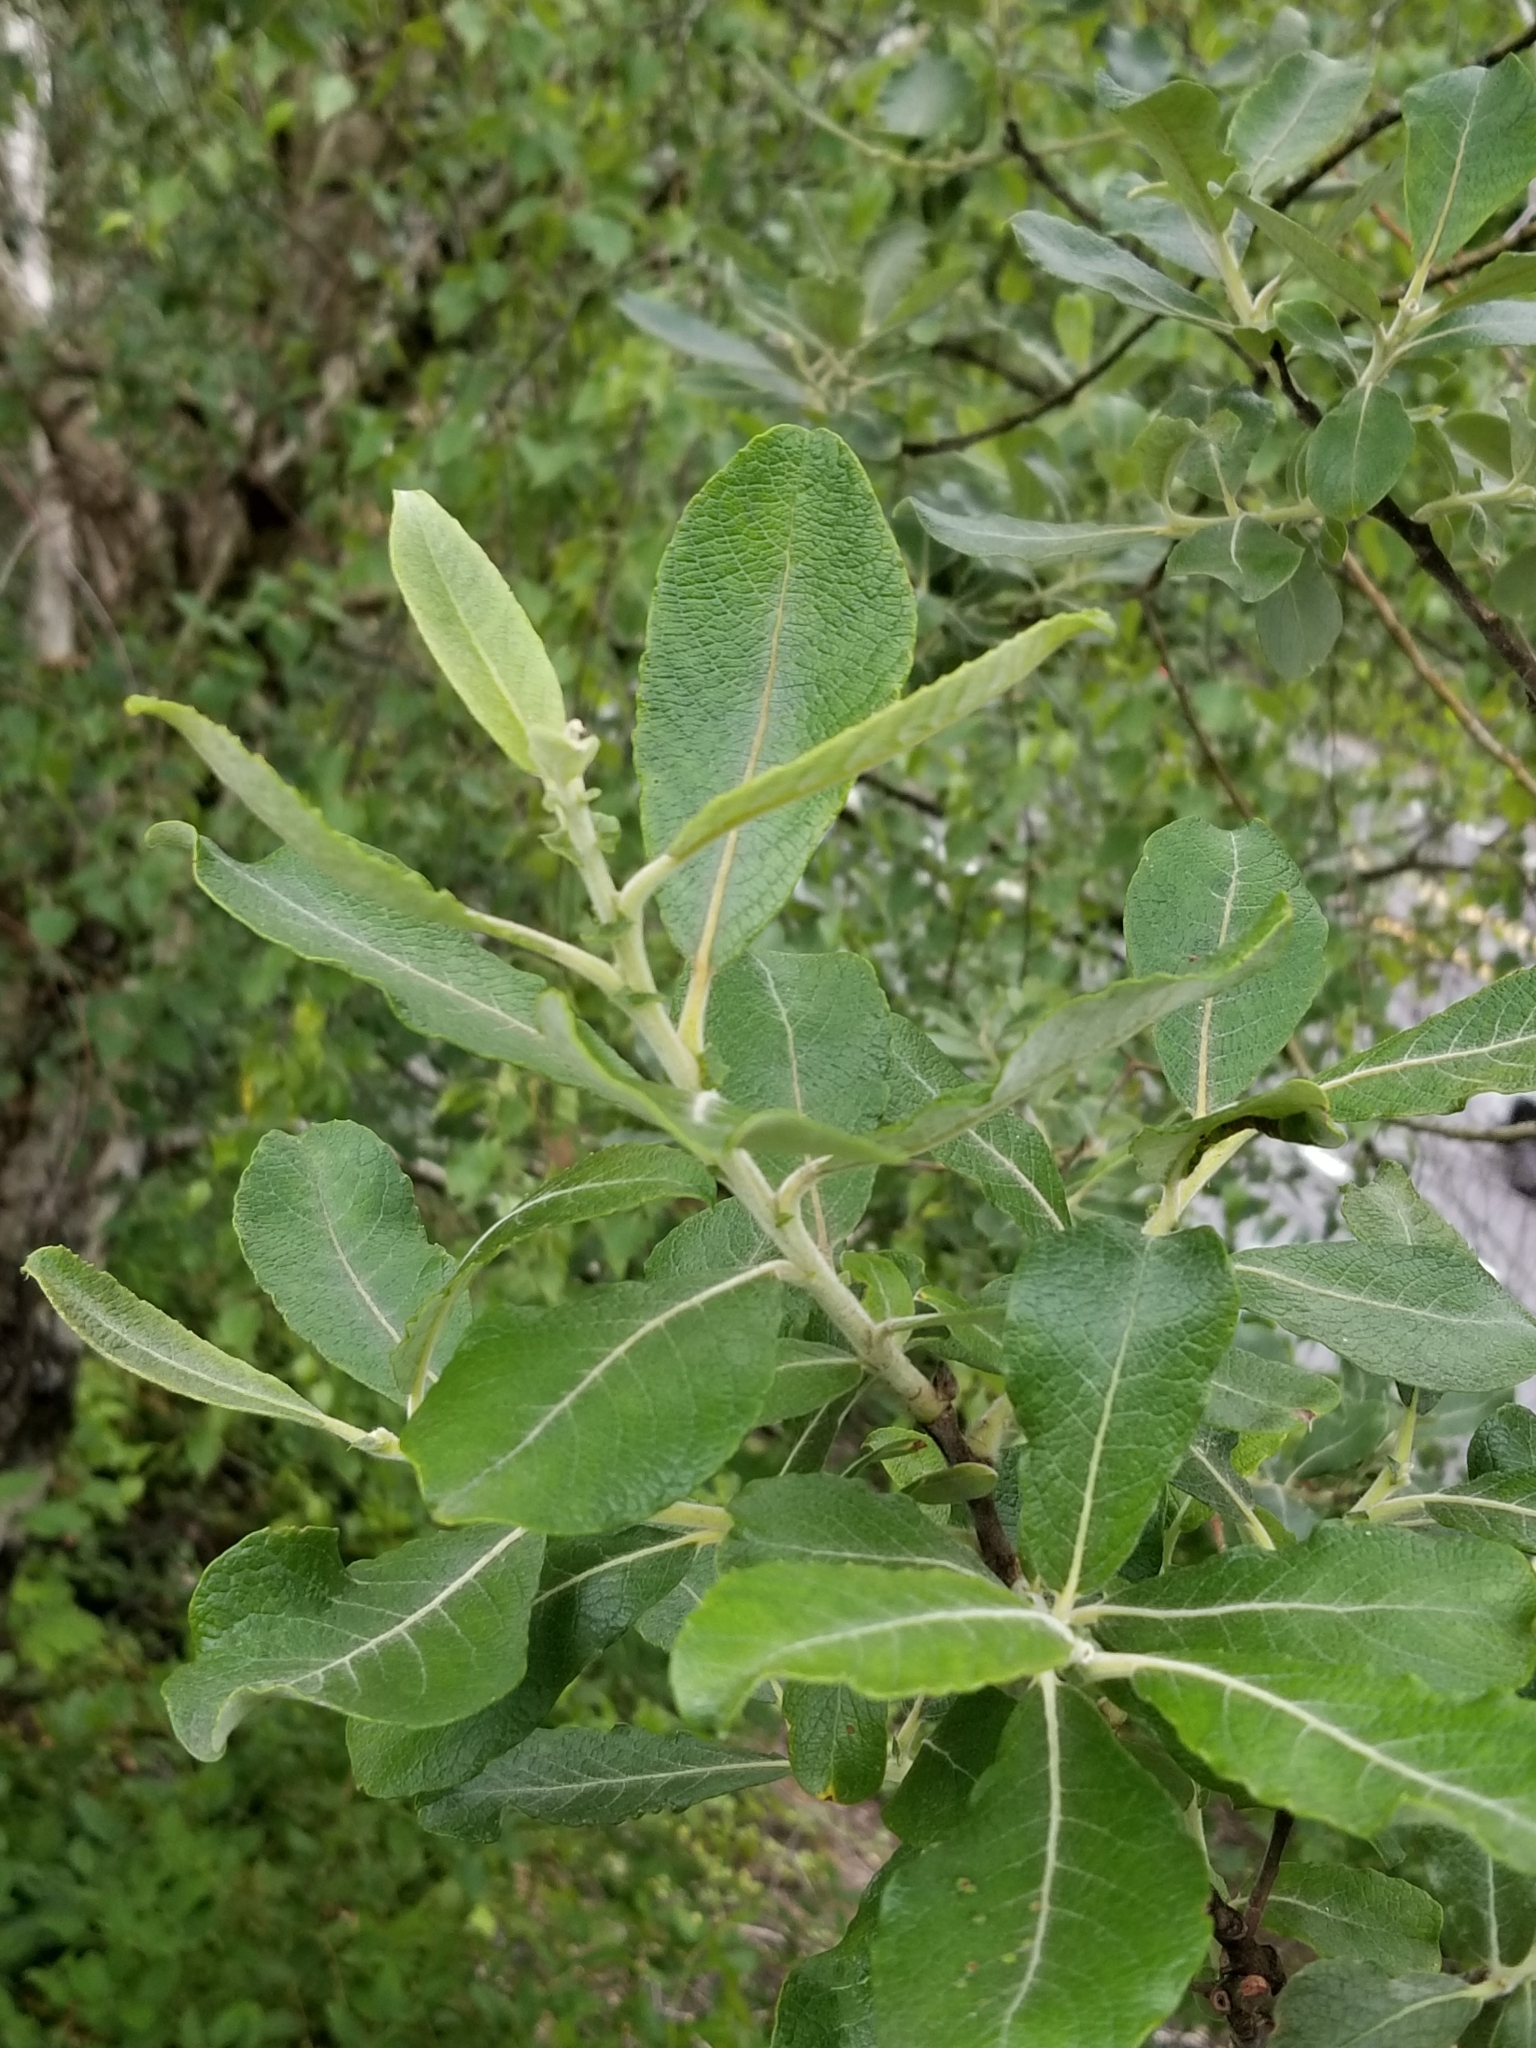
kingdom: Plantae
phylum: Tracheophyta
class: Magnoliopsida
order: Malpighiales
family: Salicaceae
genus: Salix
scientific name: Salix scouleriana
